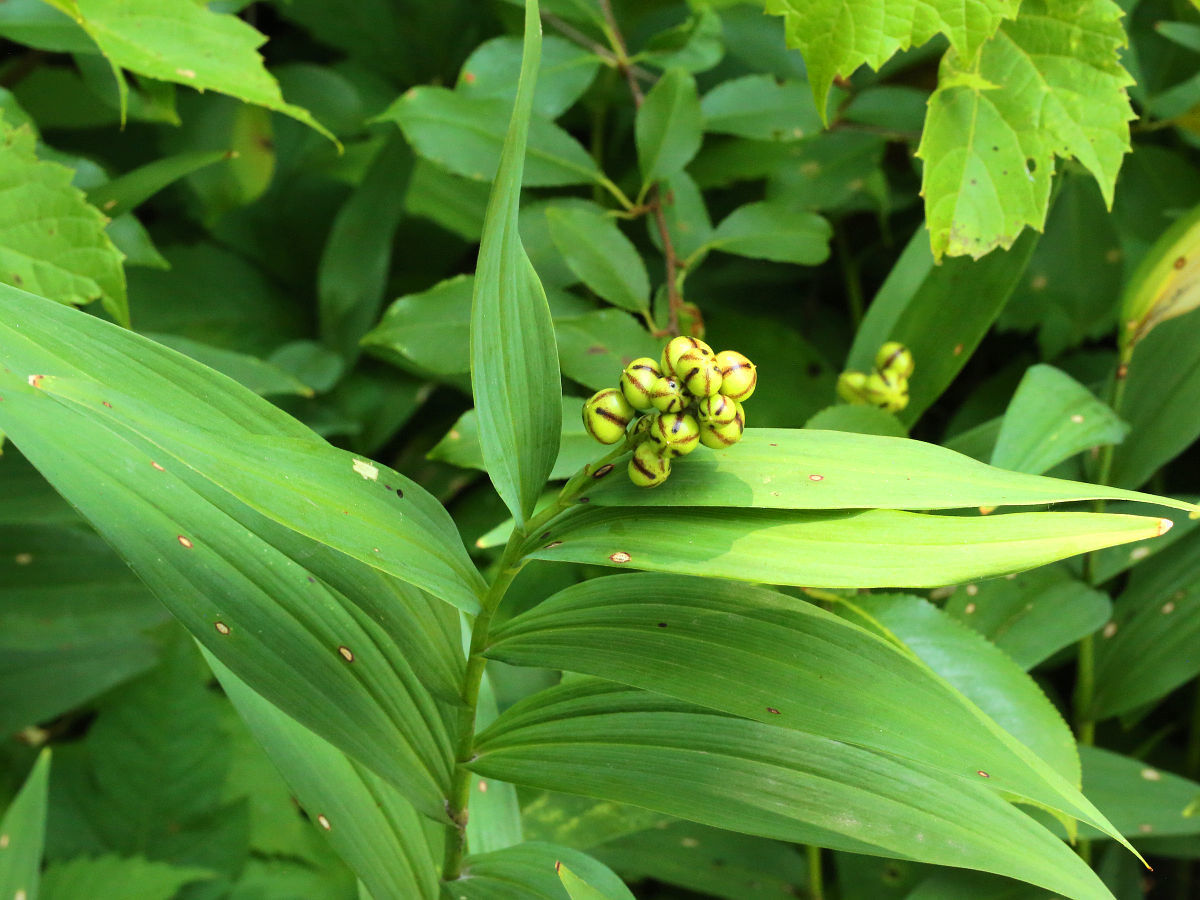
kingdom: Plantae
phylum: Tracheophyta
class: Liliopsida
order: Asparagales
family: Asparagaceae
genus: Maianthemum
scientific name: Maianthemum stellatum
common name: Little false solomon's seal
